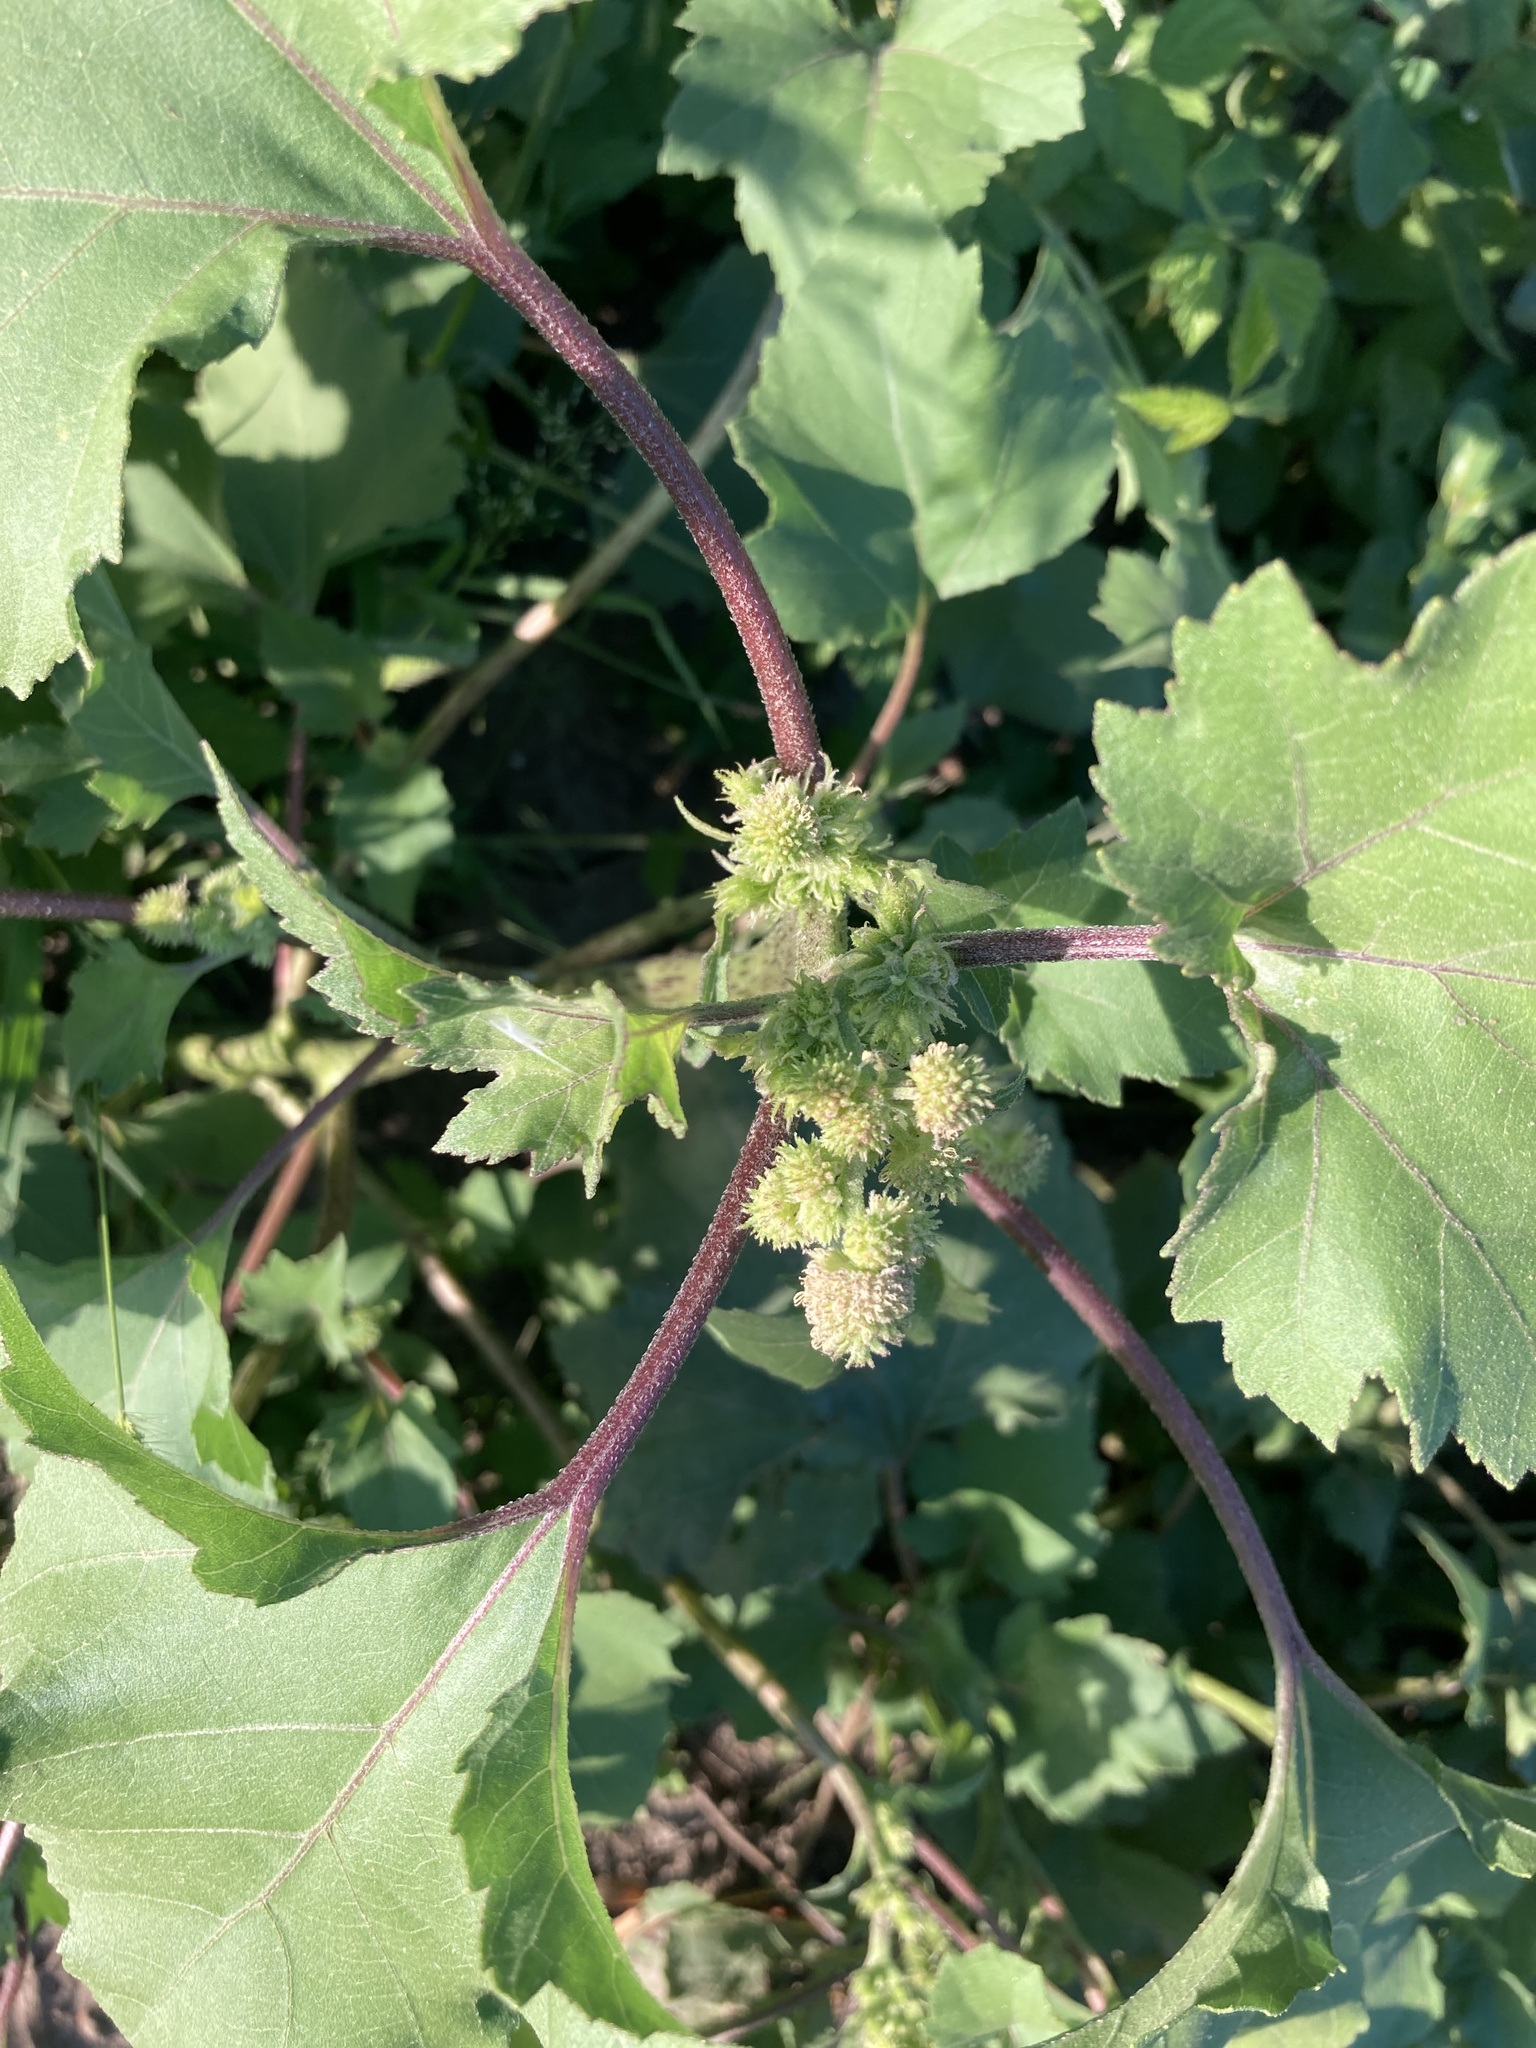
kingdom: Plantae
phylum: Tracheophyta
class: Magnoliopsida
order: Asterales
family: Asteraceae
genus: Xanthium
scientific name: Xanthium orientale
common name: Californian burr
